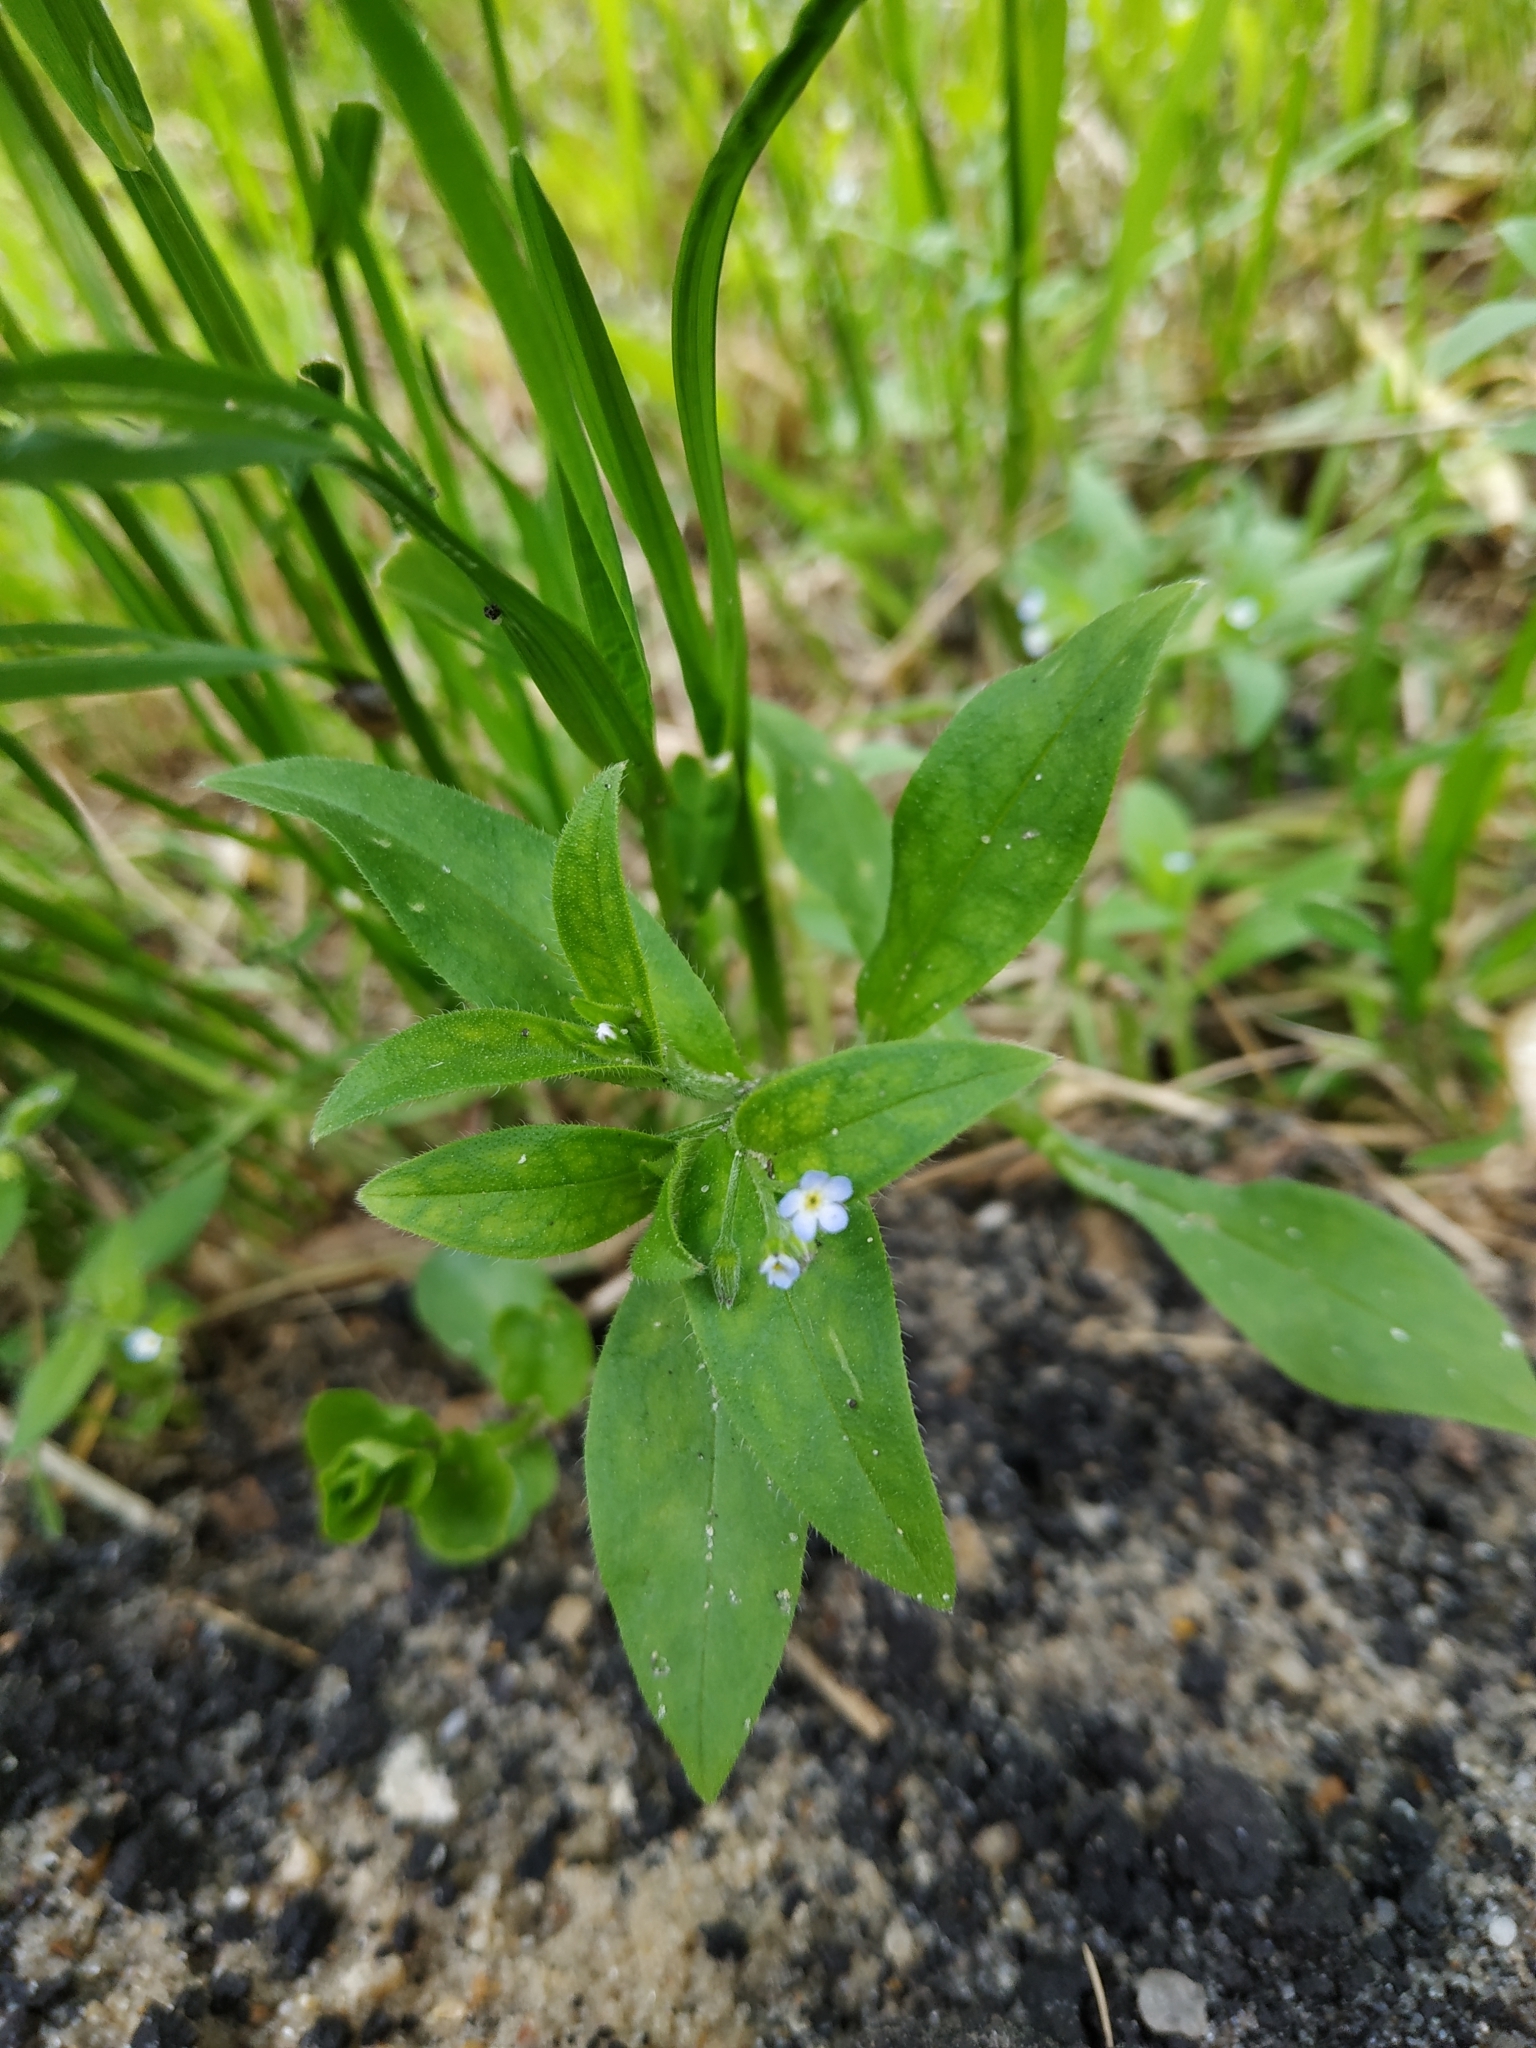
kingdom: Plantae
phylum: Tracheophyta
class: Magnoliopsida
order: Boraginales
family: Boraginaceae
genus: Myosotis
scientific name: Myosotis sparsiflora
